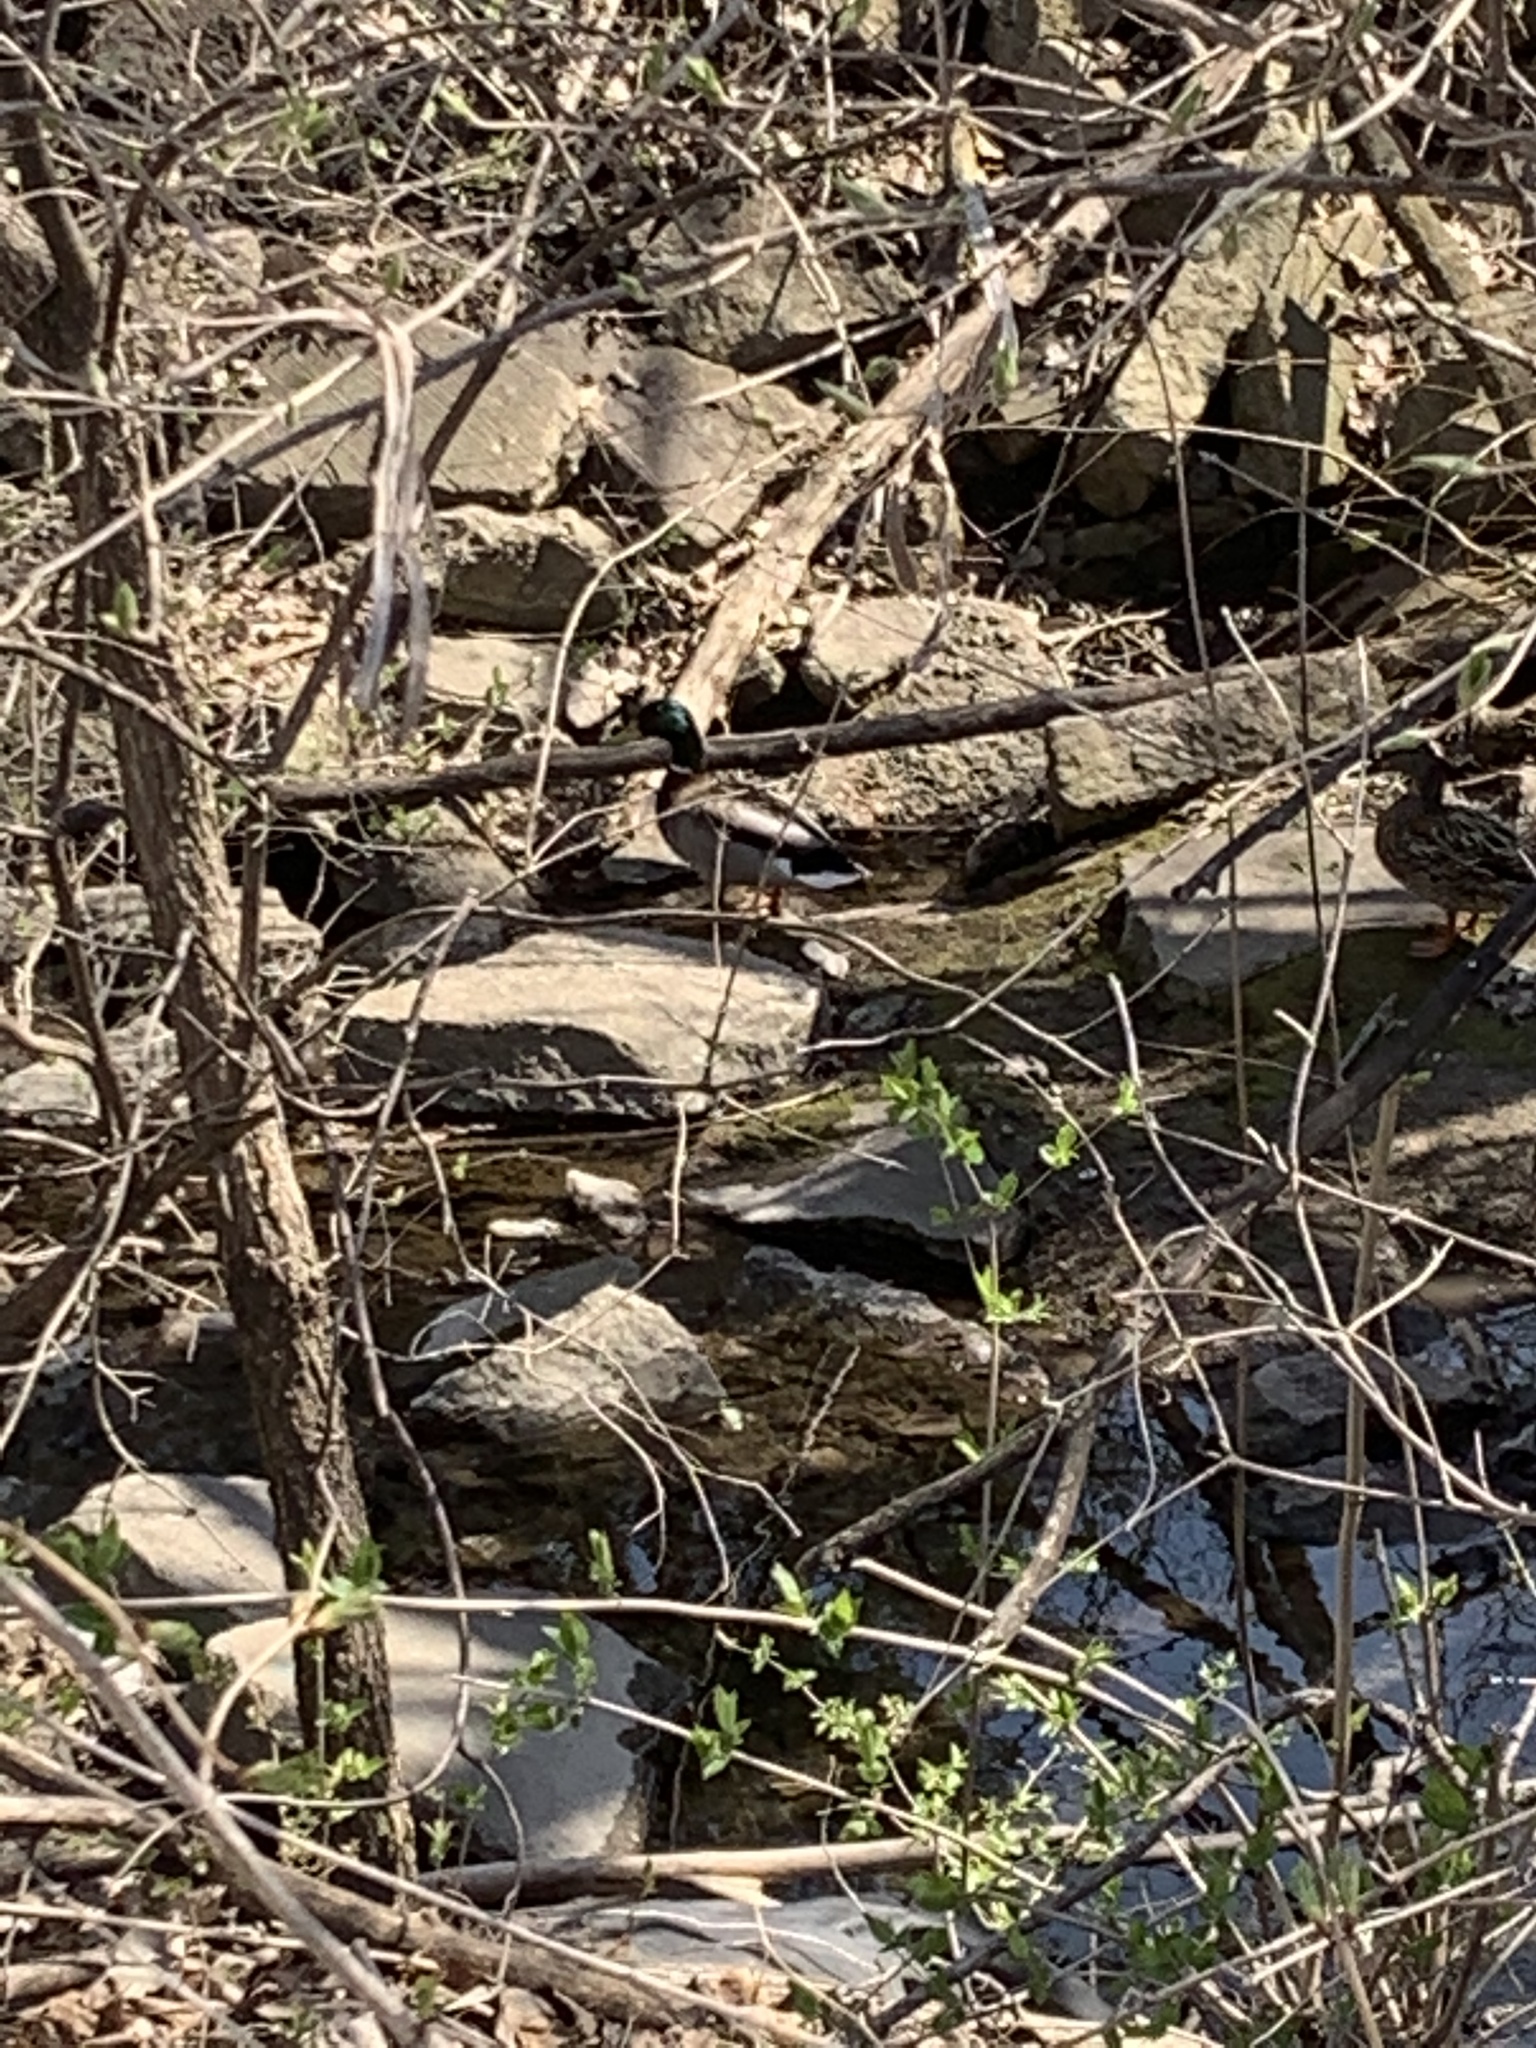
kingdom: Animalia
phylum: Chordata
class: Aves
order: Anseriformes
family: Anatidae
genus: Anas
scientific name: Anas platyrhynchos
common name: Mallard
